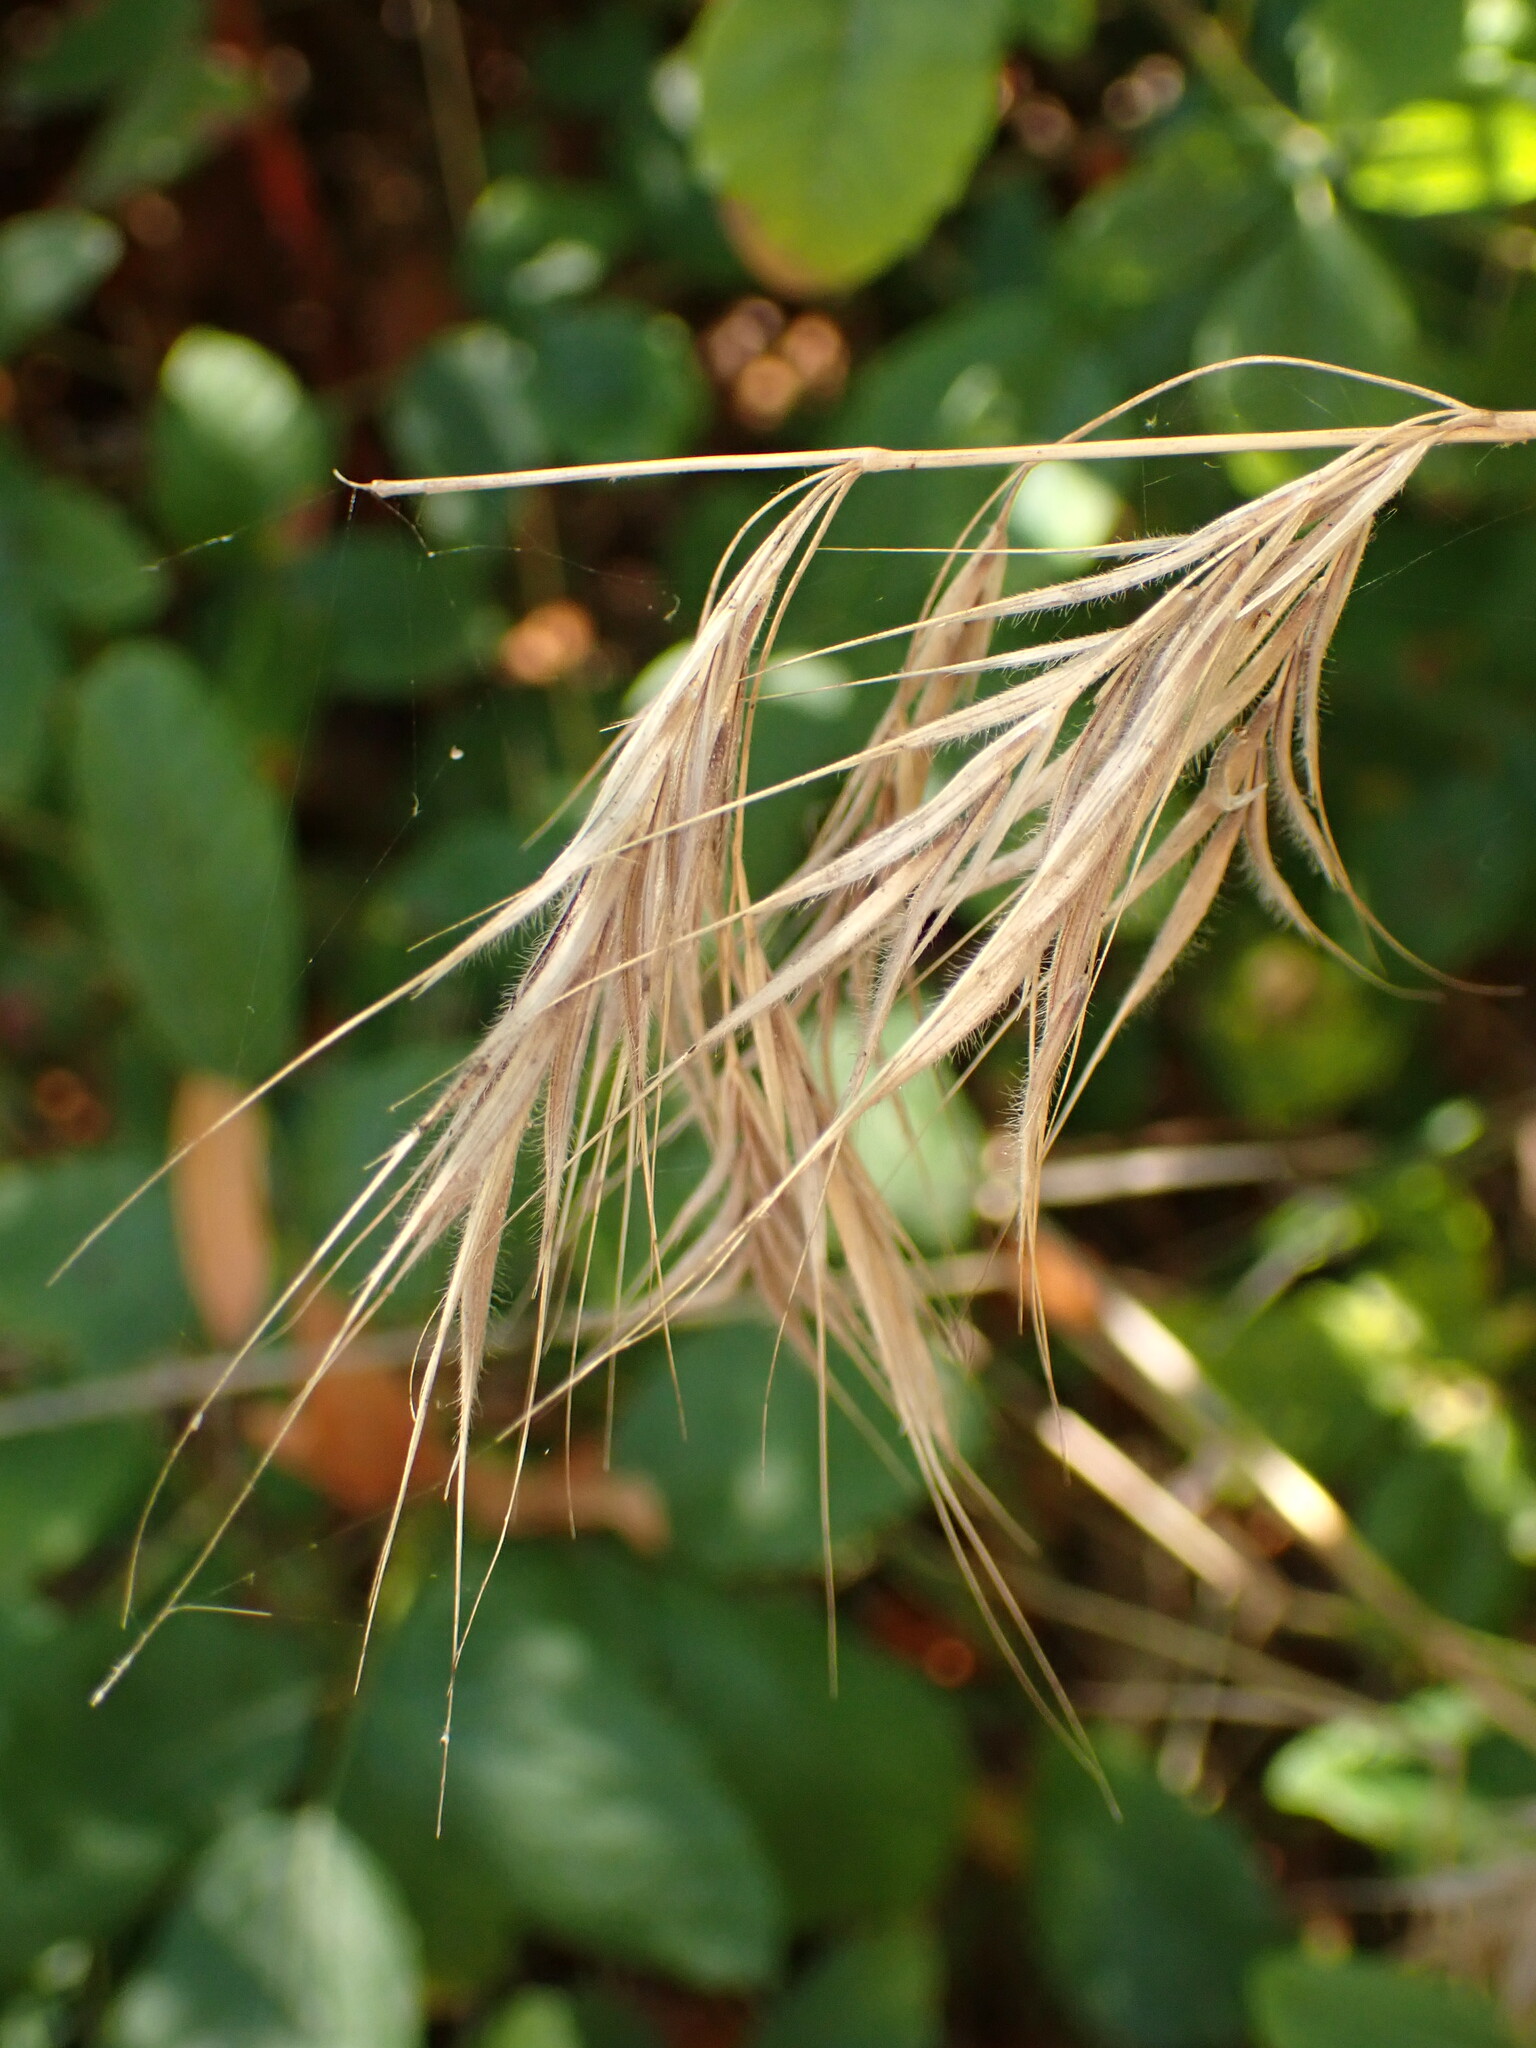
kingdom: Plantae
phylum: Tracheophyta
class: Liliopsida
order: Poales
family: Poaceae
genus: Bromus
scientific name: Bromus tectorum
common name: Cheatgrass
